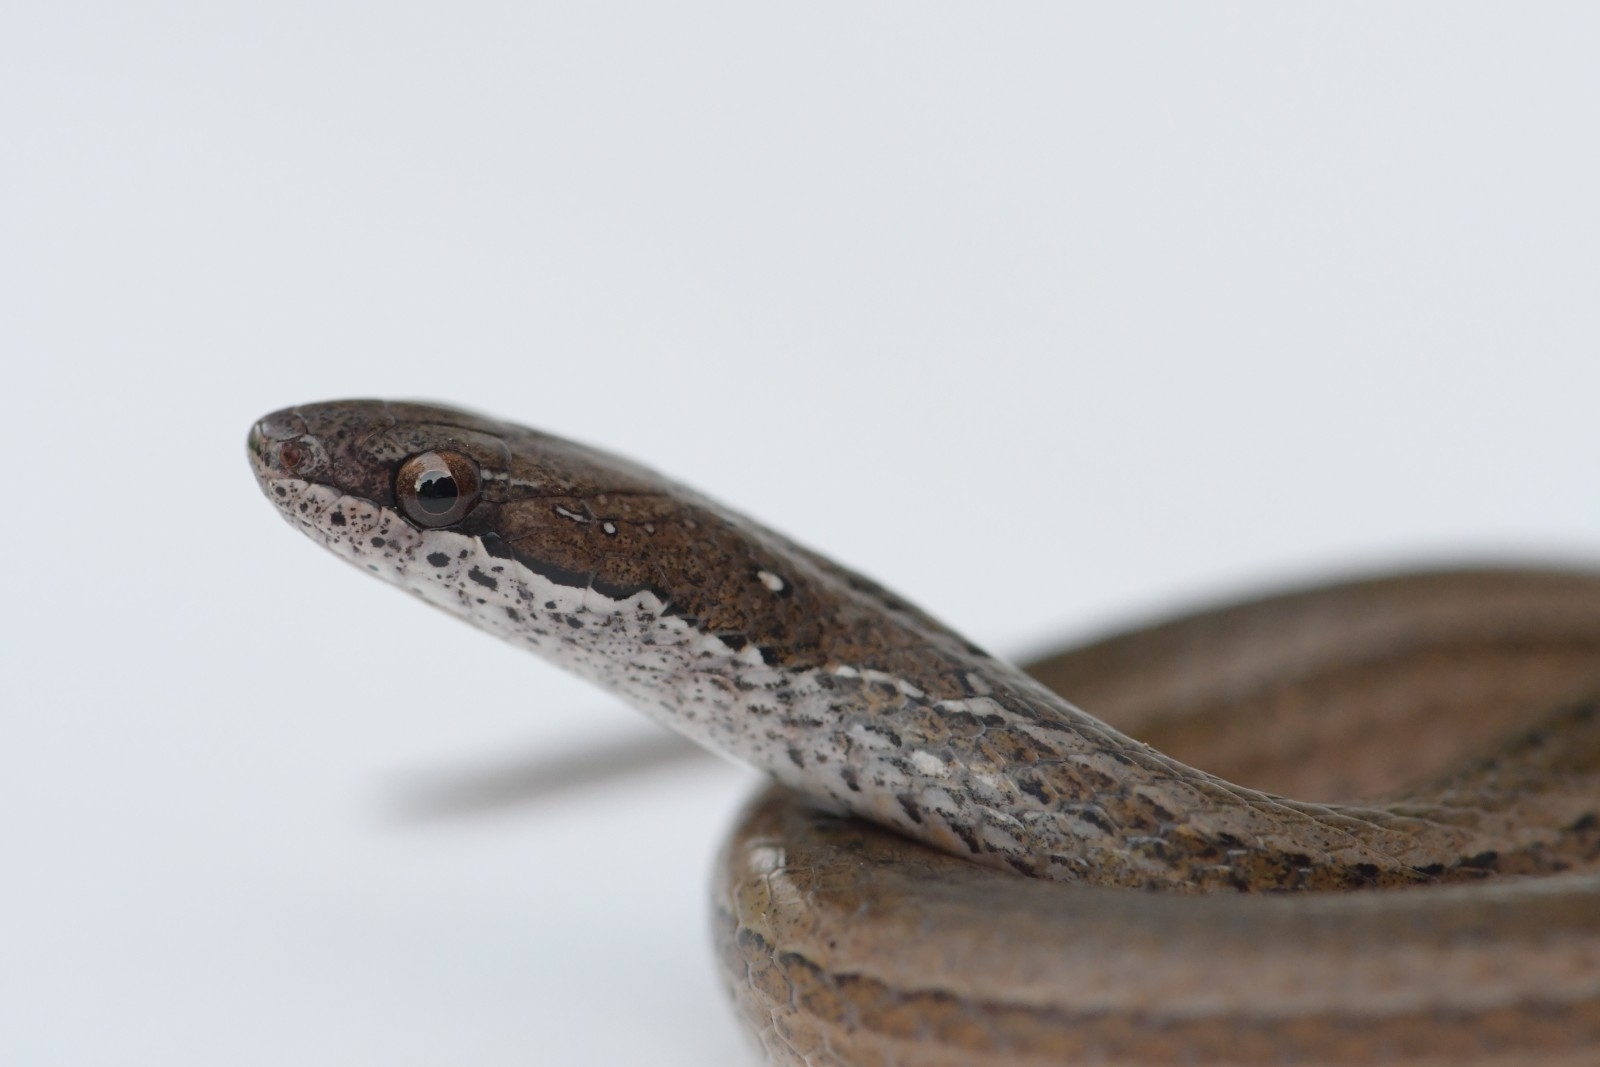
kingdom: Animalia
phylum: Chordata
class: Squamata
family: Colubridae
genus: Coniophanes
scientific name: Coniophanes fissidens
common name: Yellowbelly snake
